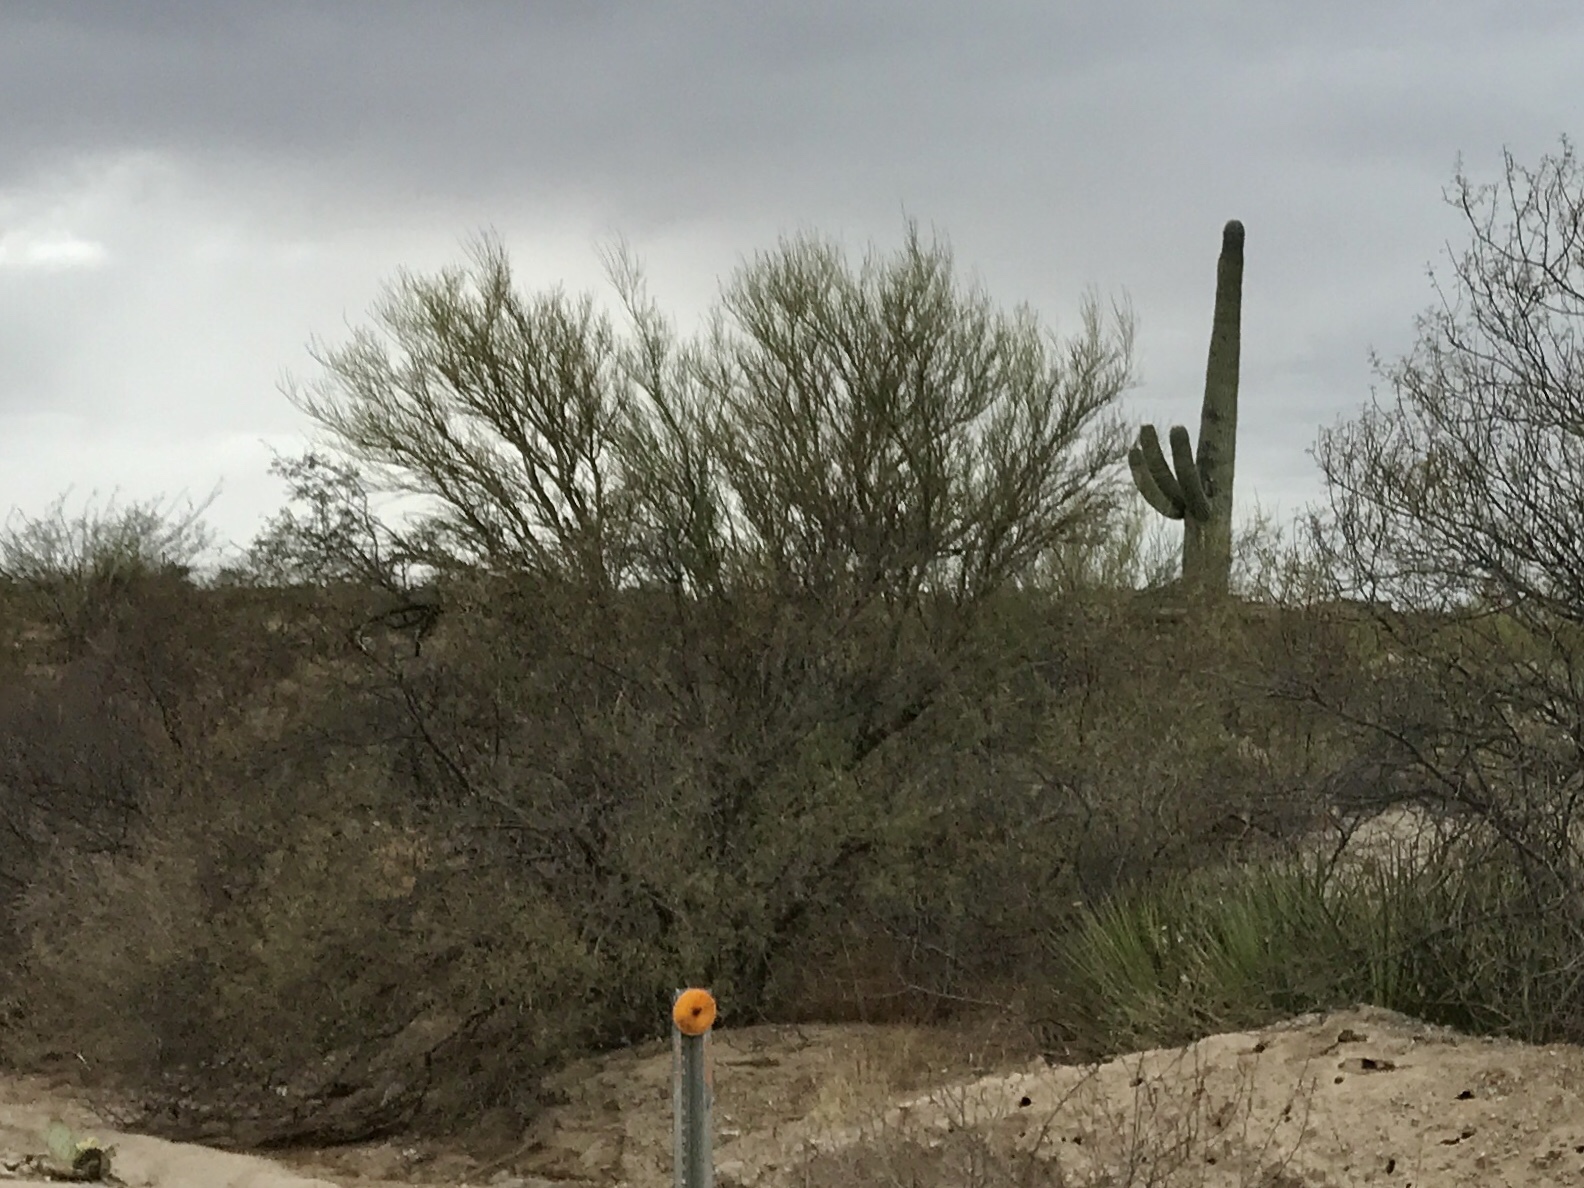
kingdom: Plantae
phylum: Tracheophyta
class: Magnoliopsida
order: Fabales
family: Fabaceae
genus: Parkinsonia
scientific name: Parkinsonia microphylla
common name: Yellow paloverde
